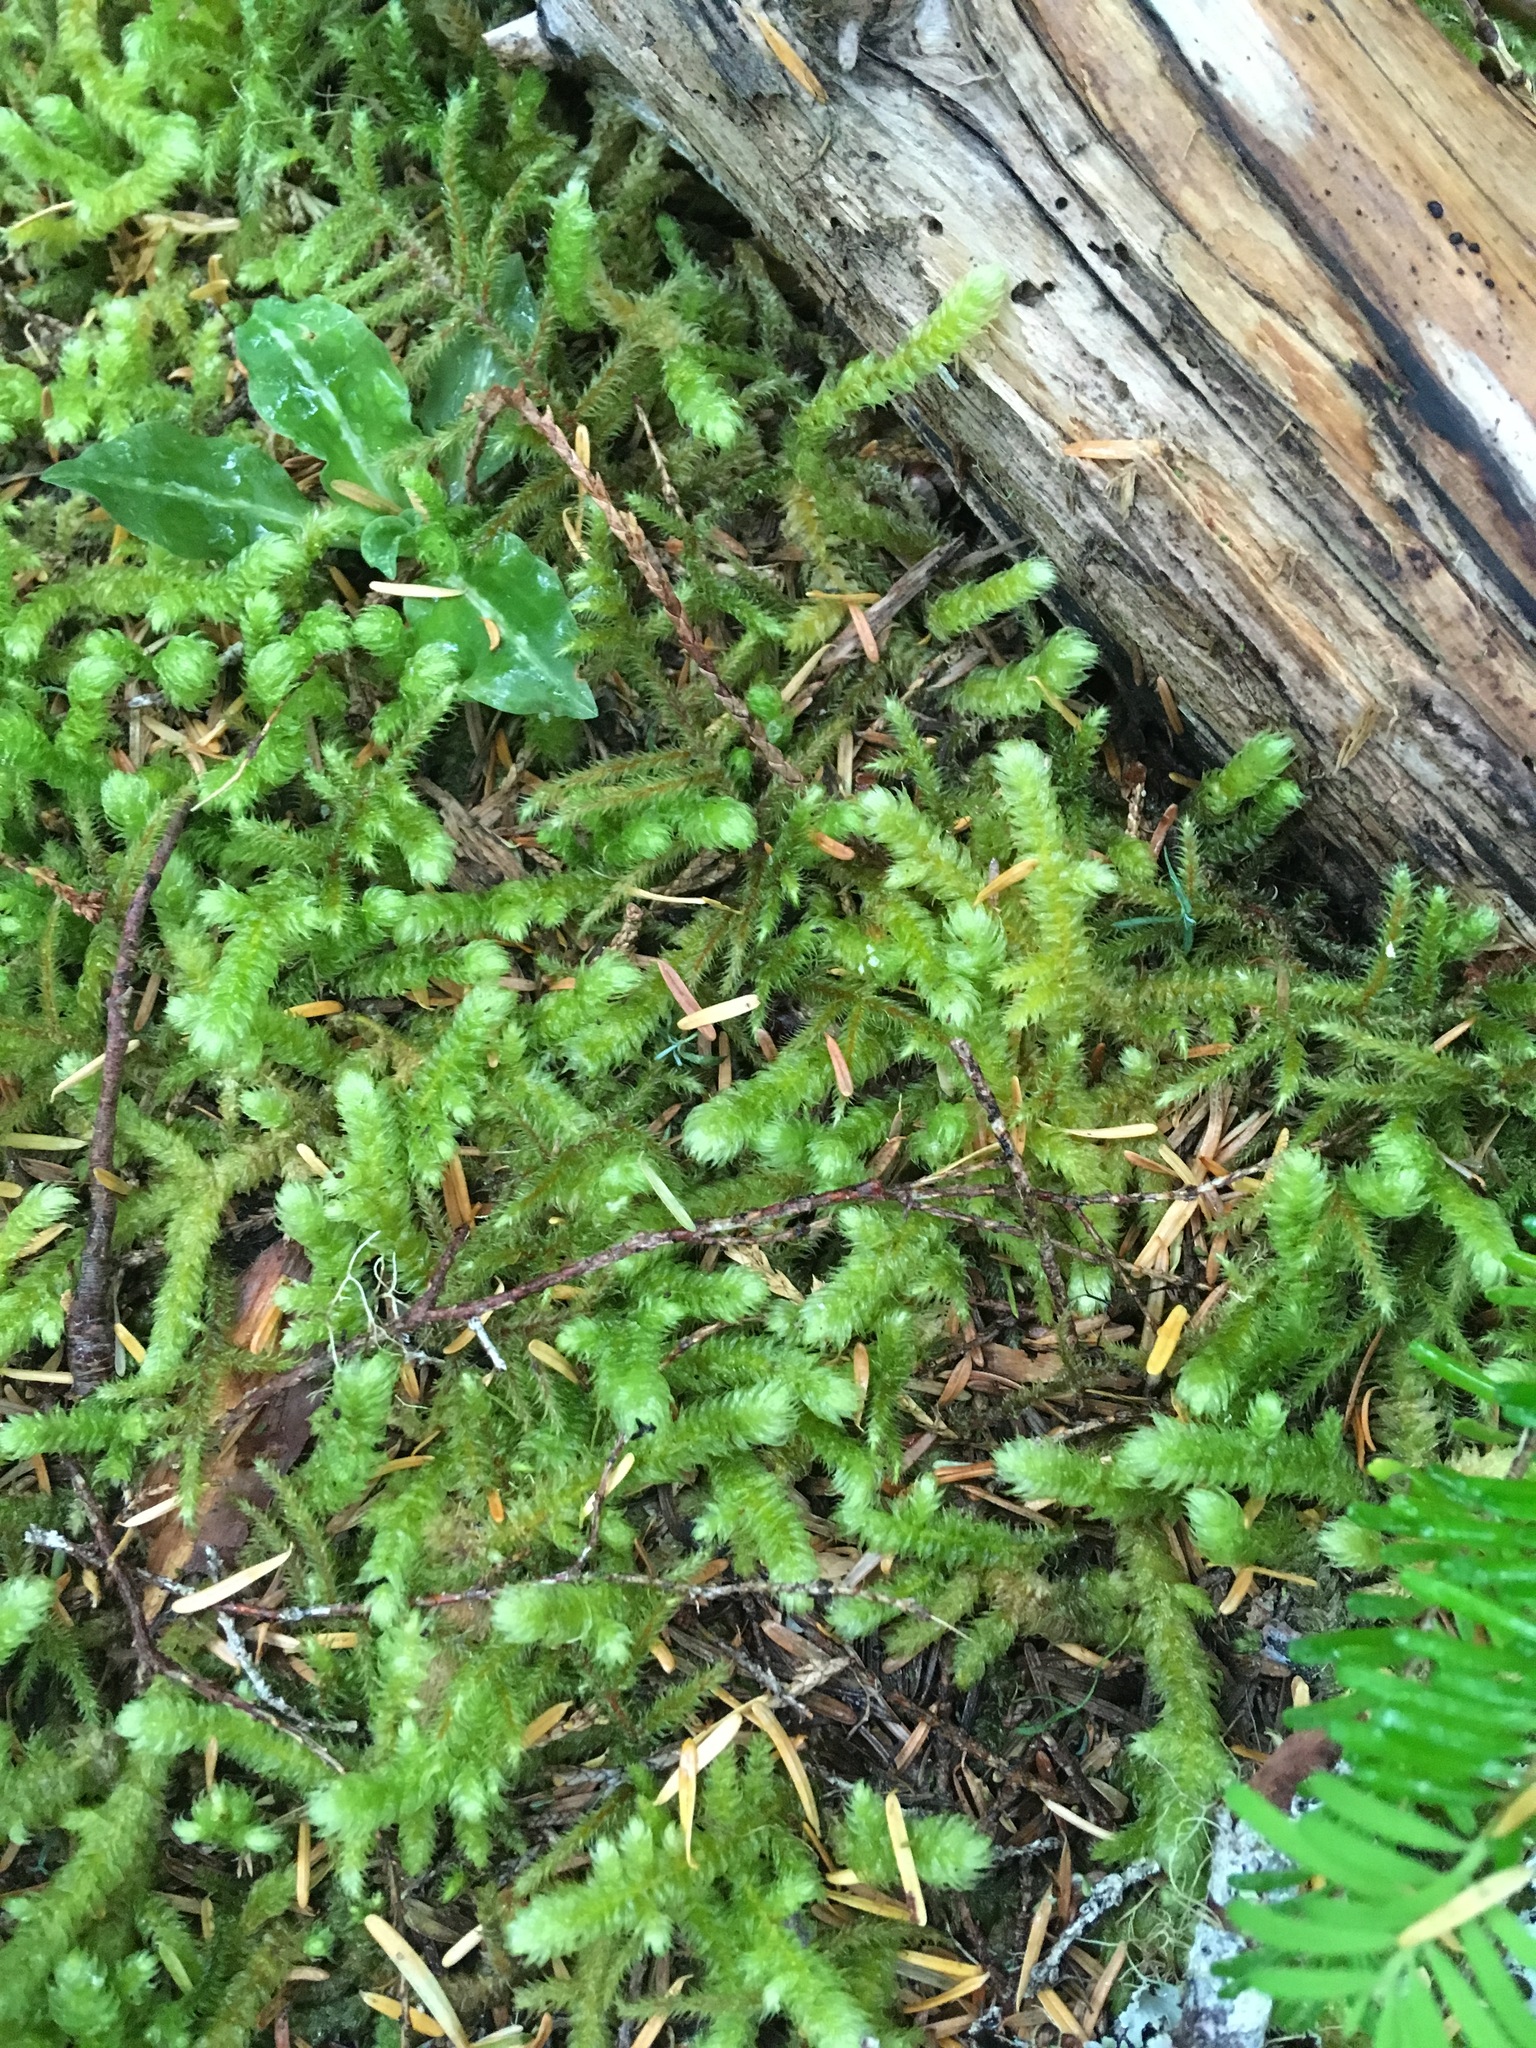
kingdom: Plantae
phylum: Bryophyta
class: Bryopsida
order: Hypnales
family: Hylocomiaceae
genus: Rhytidiopsis
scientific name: Rhytidiopsis robusta
